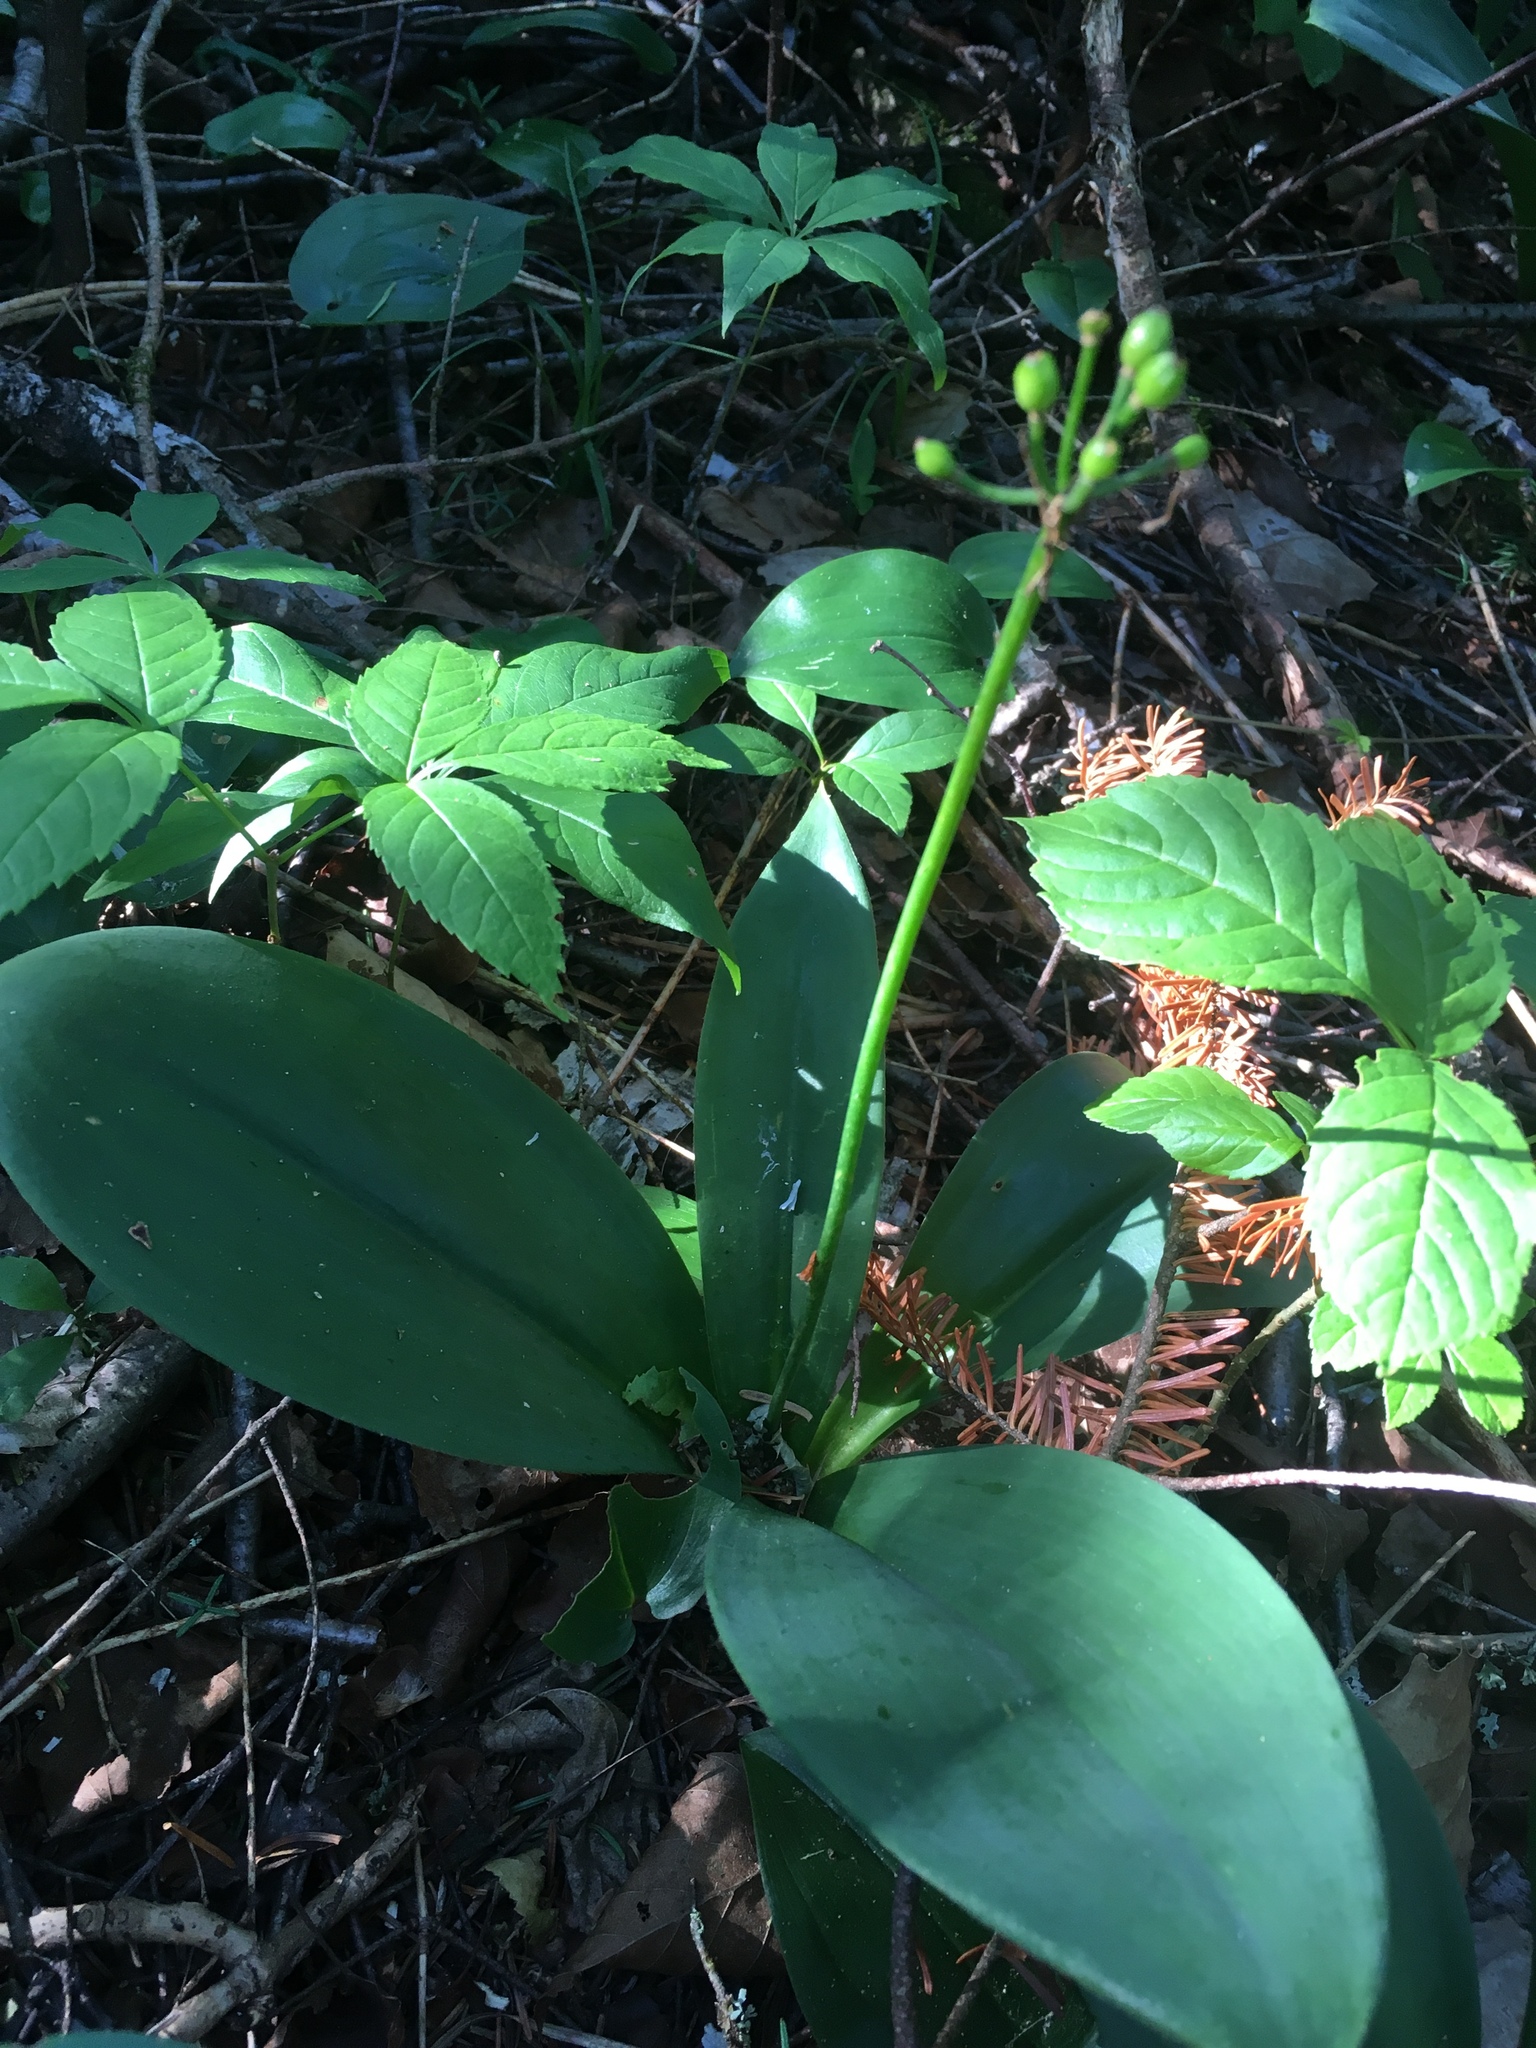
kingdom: Plantae
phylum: Tracheophyta
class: Liliopsida
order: Liliales
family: Liliaceae
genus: Clintonia
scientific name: Clintonia borealis
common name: Yellow clintonia
